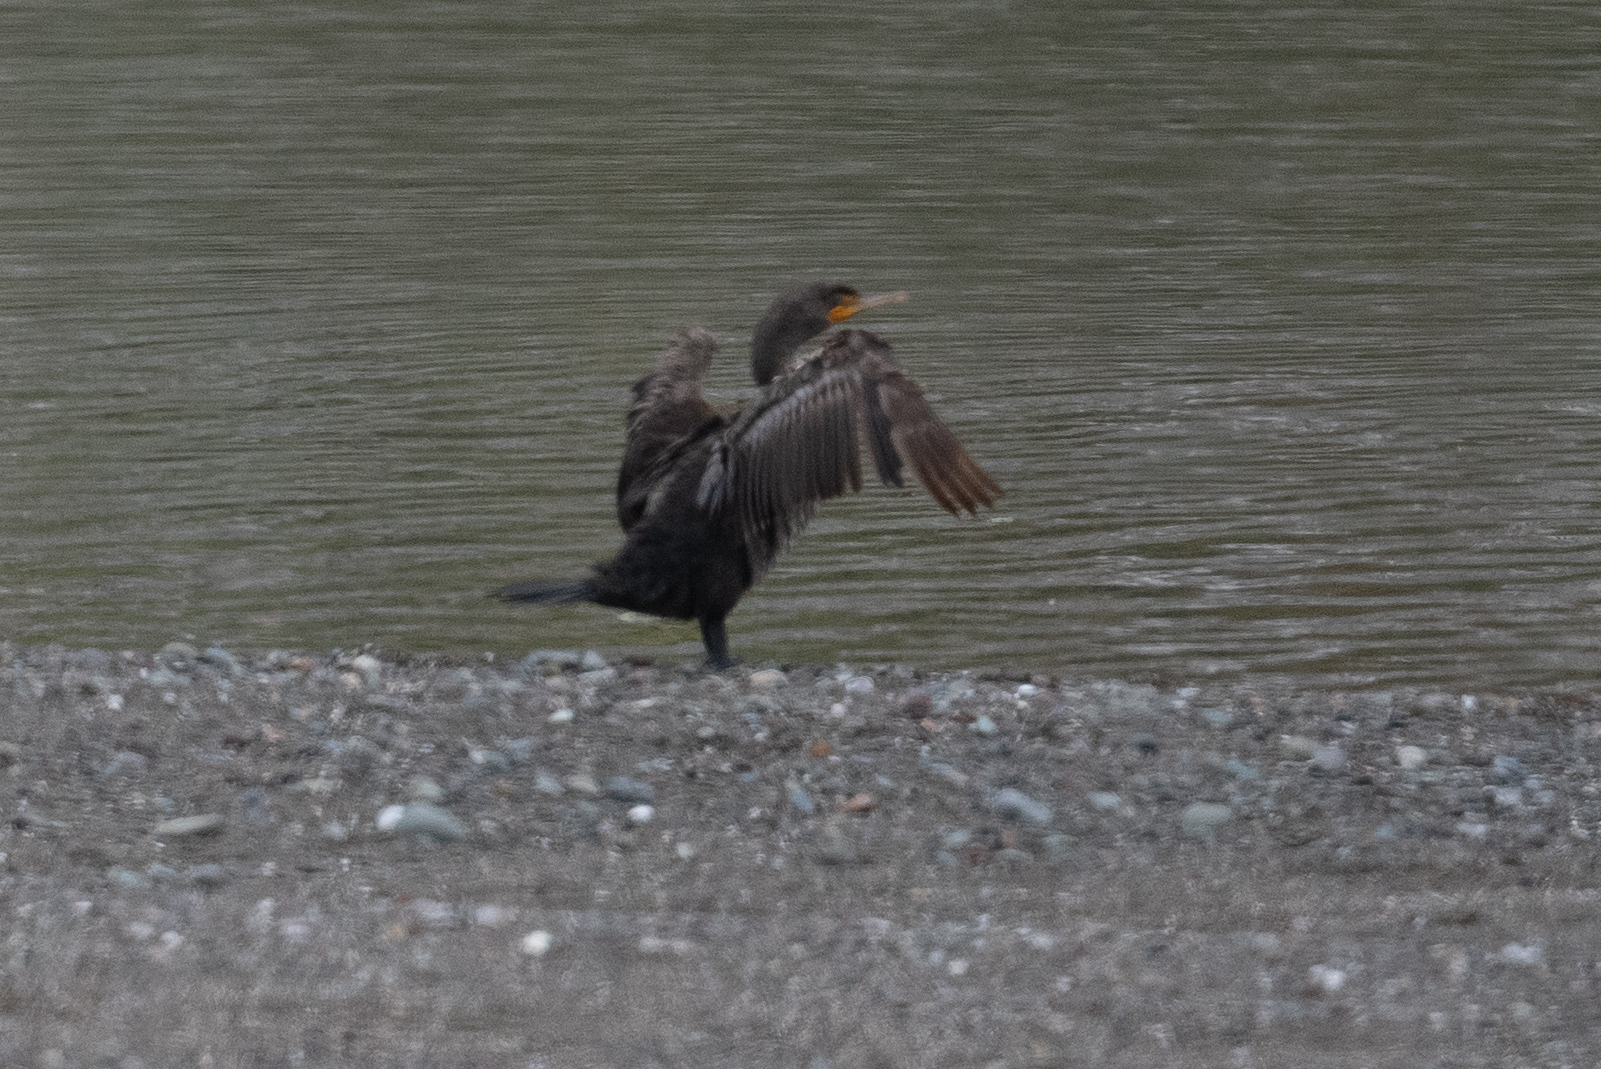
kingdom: Animalia
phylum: Chordata
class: Aves
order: Suliformes
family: Phalacrocoracidae
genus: Phalacrocorax
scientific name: Phalacrocorax auritus
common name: Double-crested cormorant
